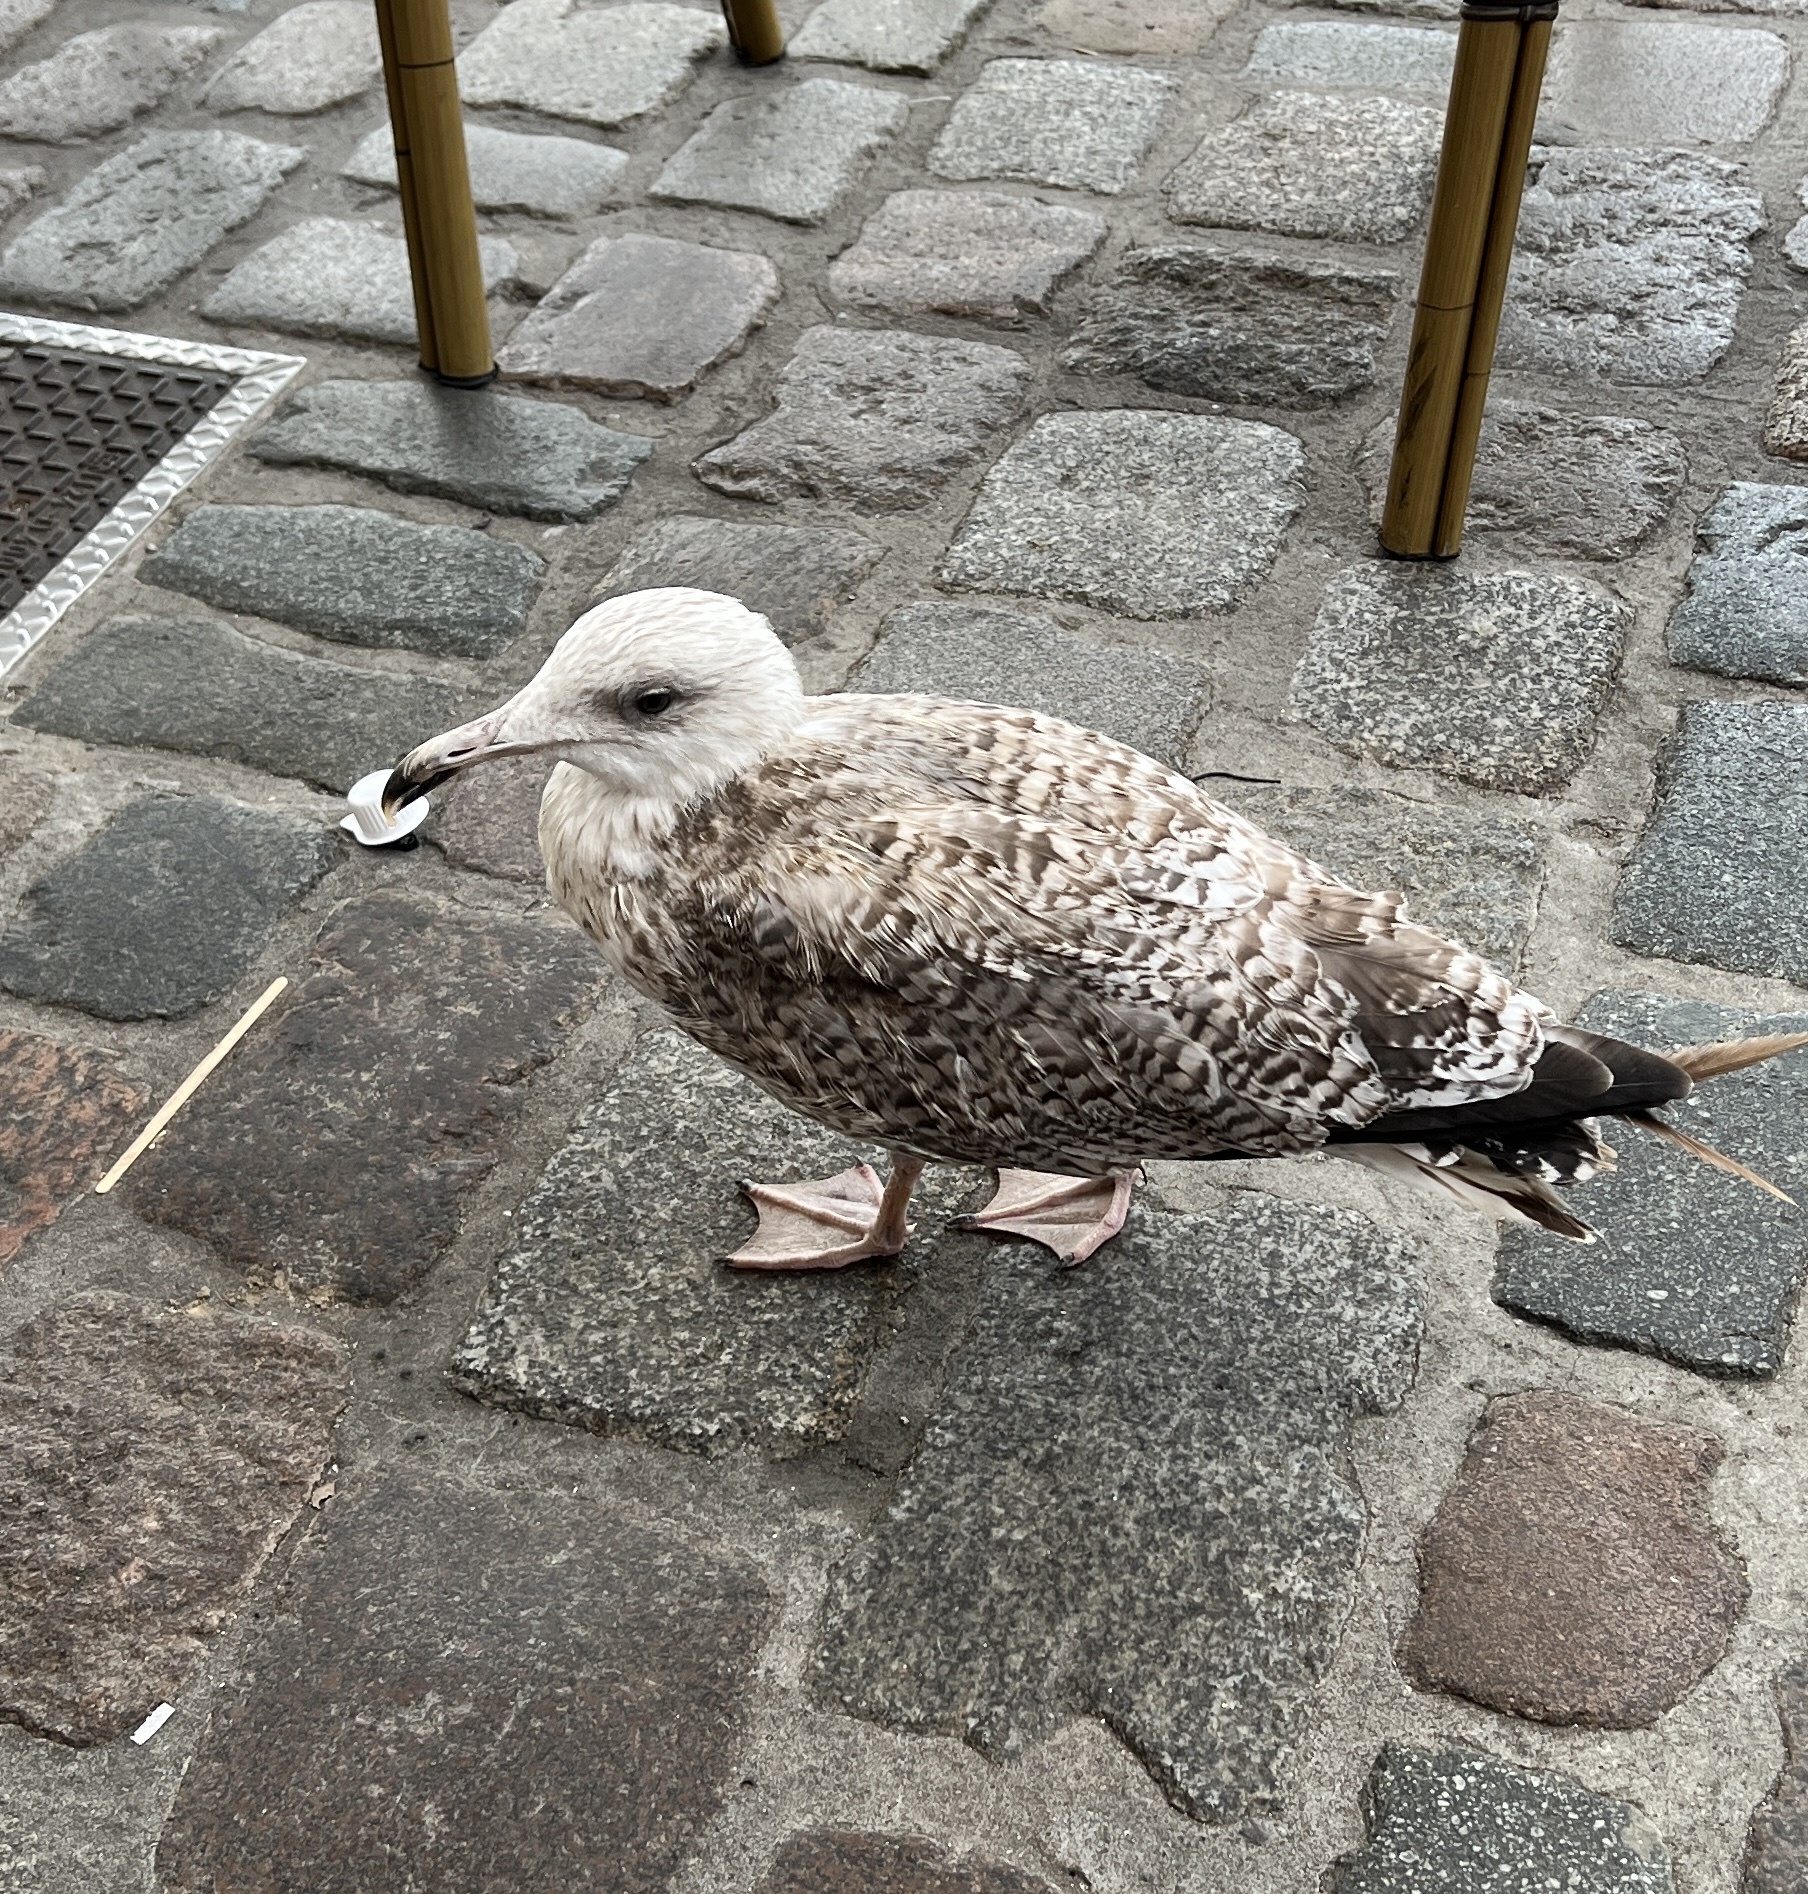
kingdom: Animalia
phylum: Chordata
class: Aves
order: Charadriiformes
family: Laridae
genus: Larus
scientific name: Larus argentatus
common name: Herring gull
